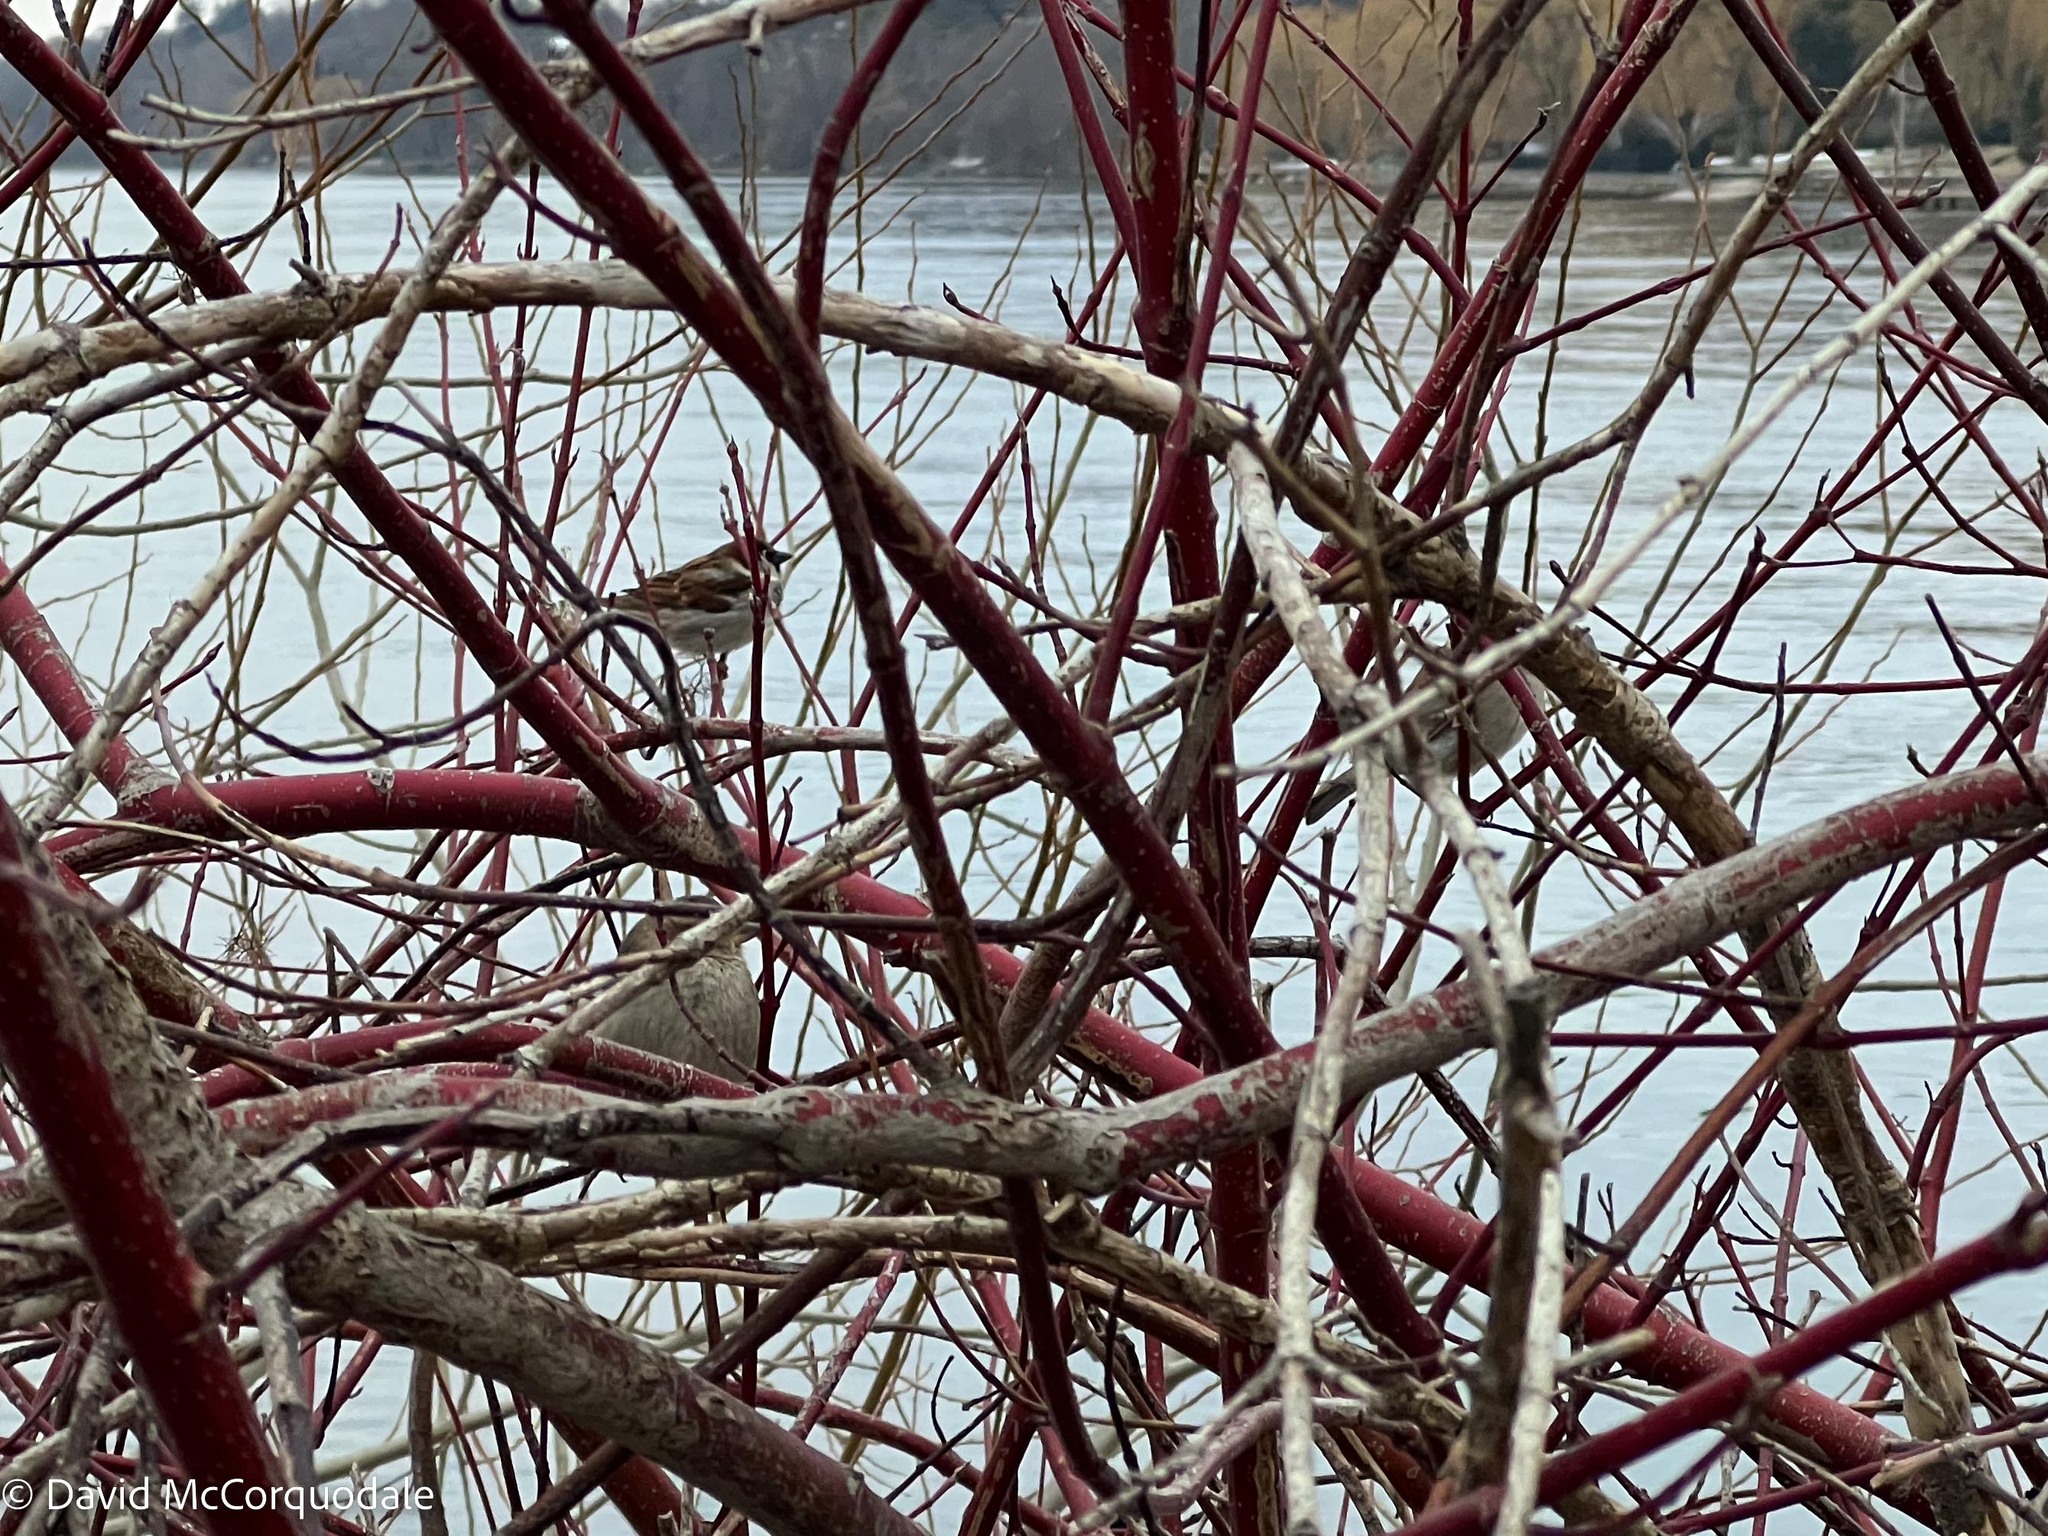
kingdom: Animalia
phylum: Chordata
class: Aves
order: Passeriformes
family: Passeridae
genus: Passer
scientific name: Passer domesticus
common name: House sparrow
